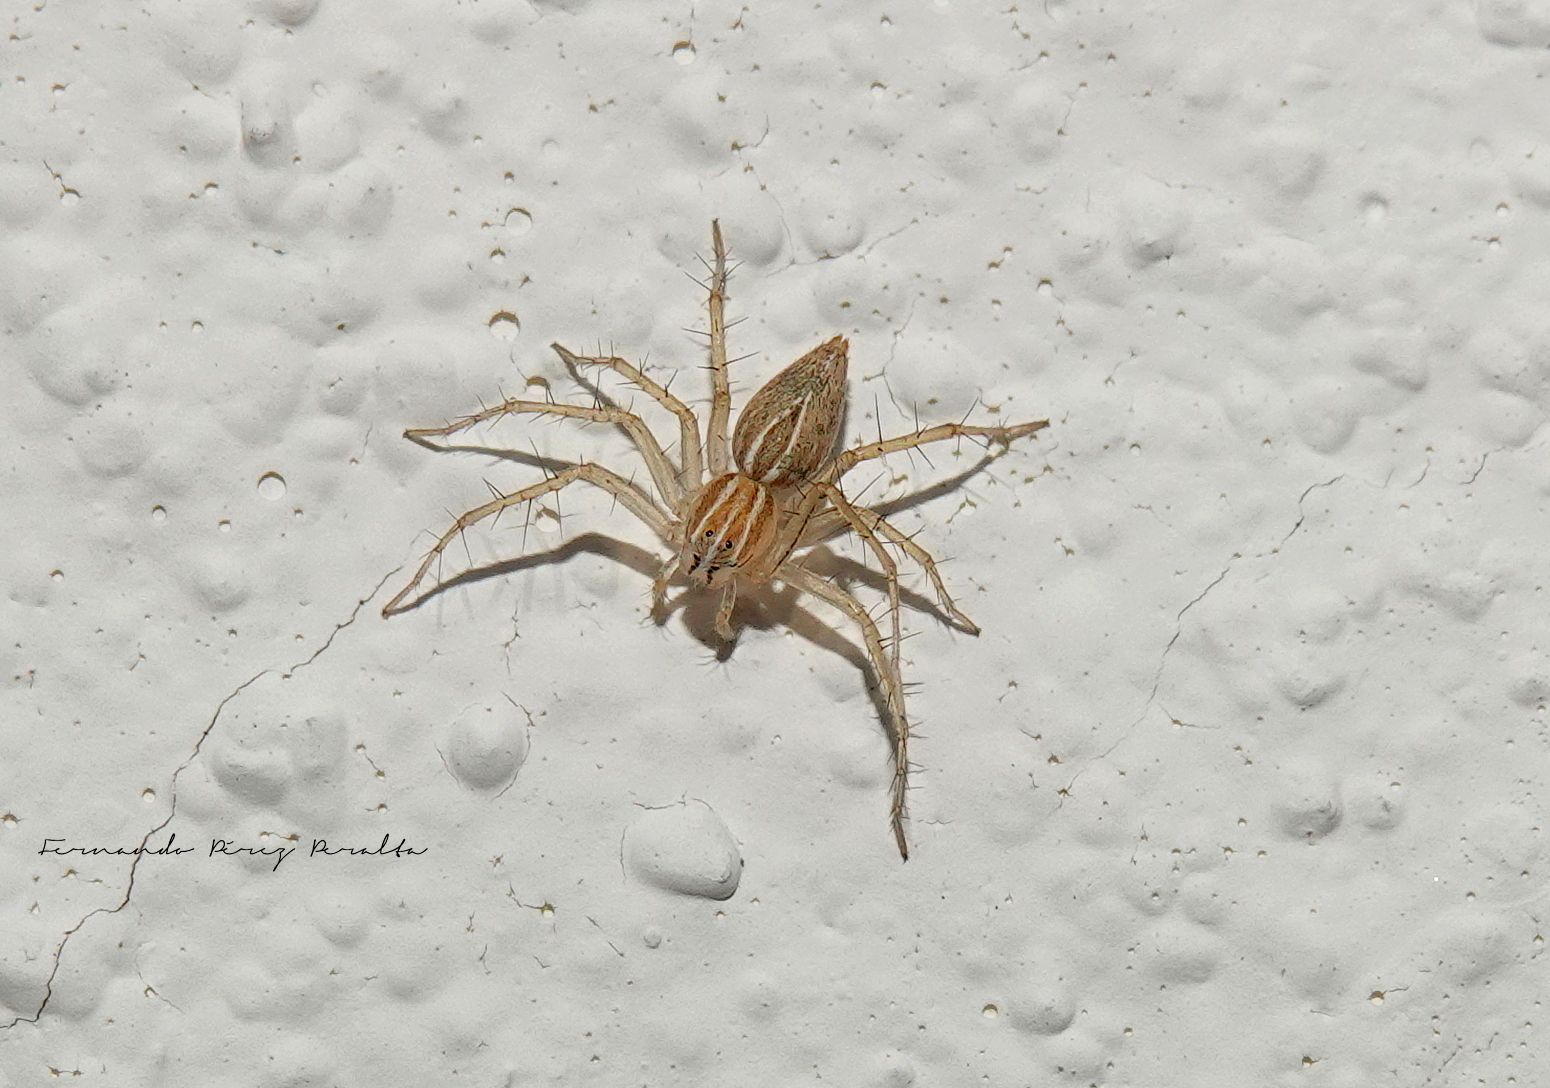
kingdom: Animalia
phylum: Arthropoda
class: Arachnida
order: Araneae
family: Oxyopidae
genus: Oxyopes
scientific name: Oxyopes salticus
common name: Lynx spiders
